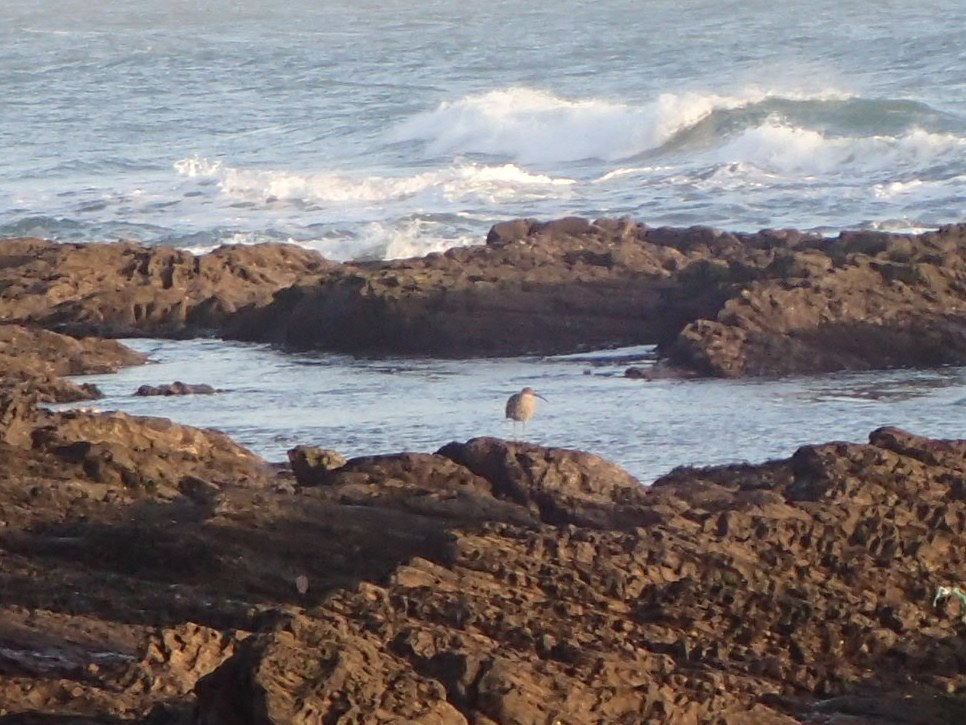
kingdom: Animalia
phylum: Chordata
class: Aves
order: Charadriiformes
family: Scolopacidae
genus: Numenius
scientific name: Numenius arquata
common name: Eurasian curlew
